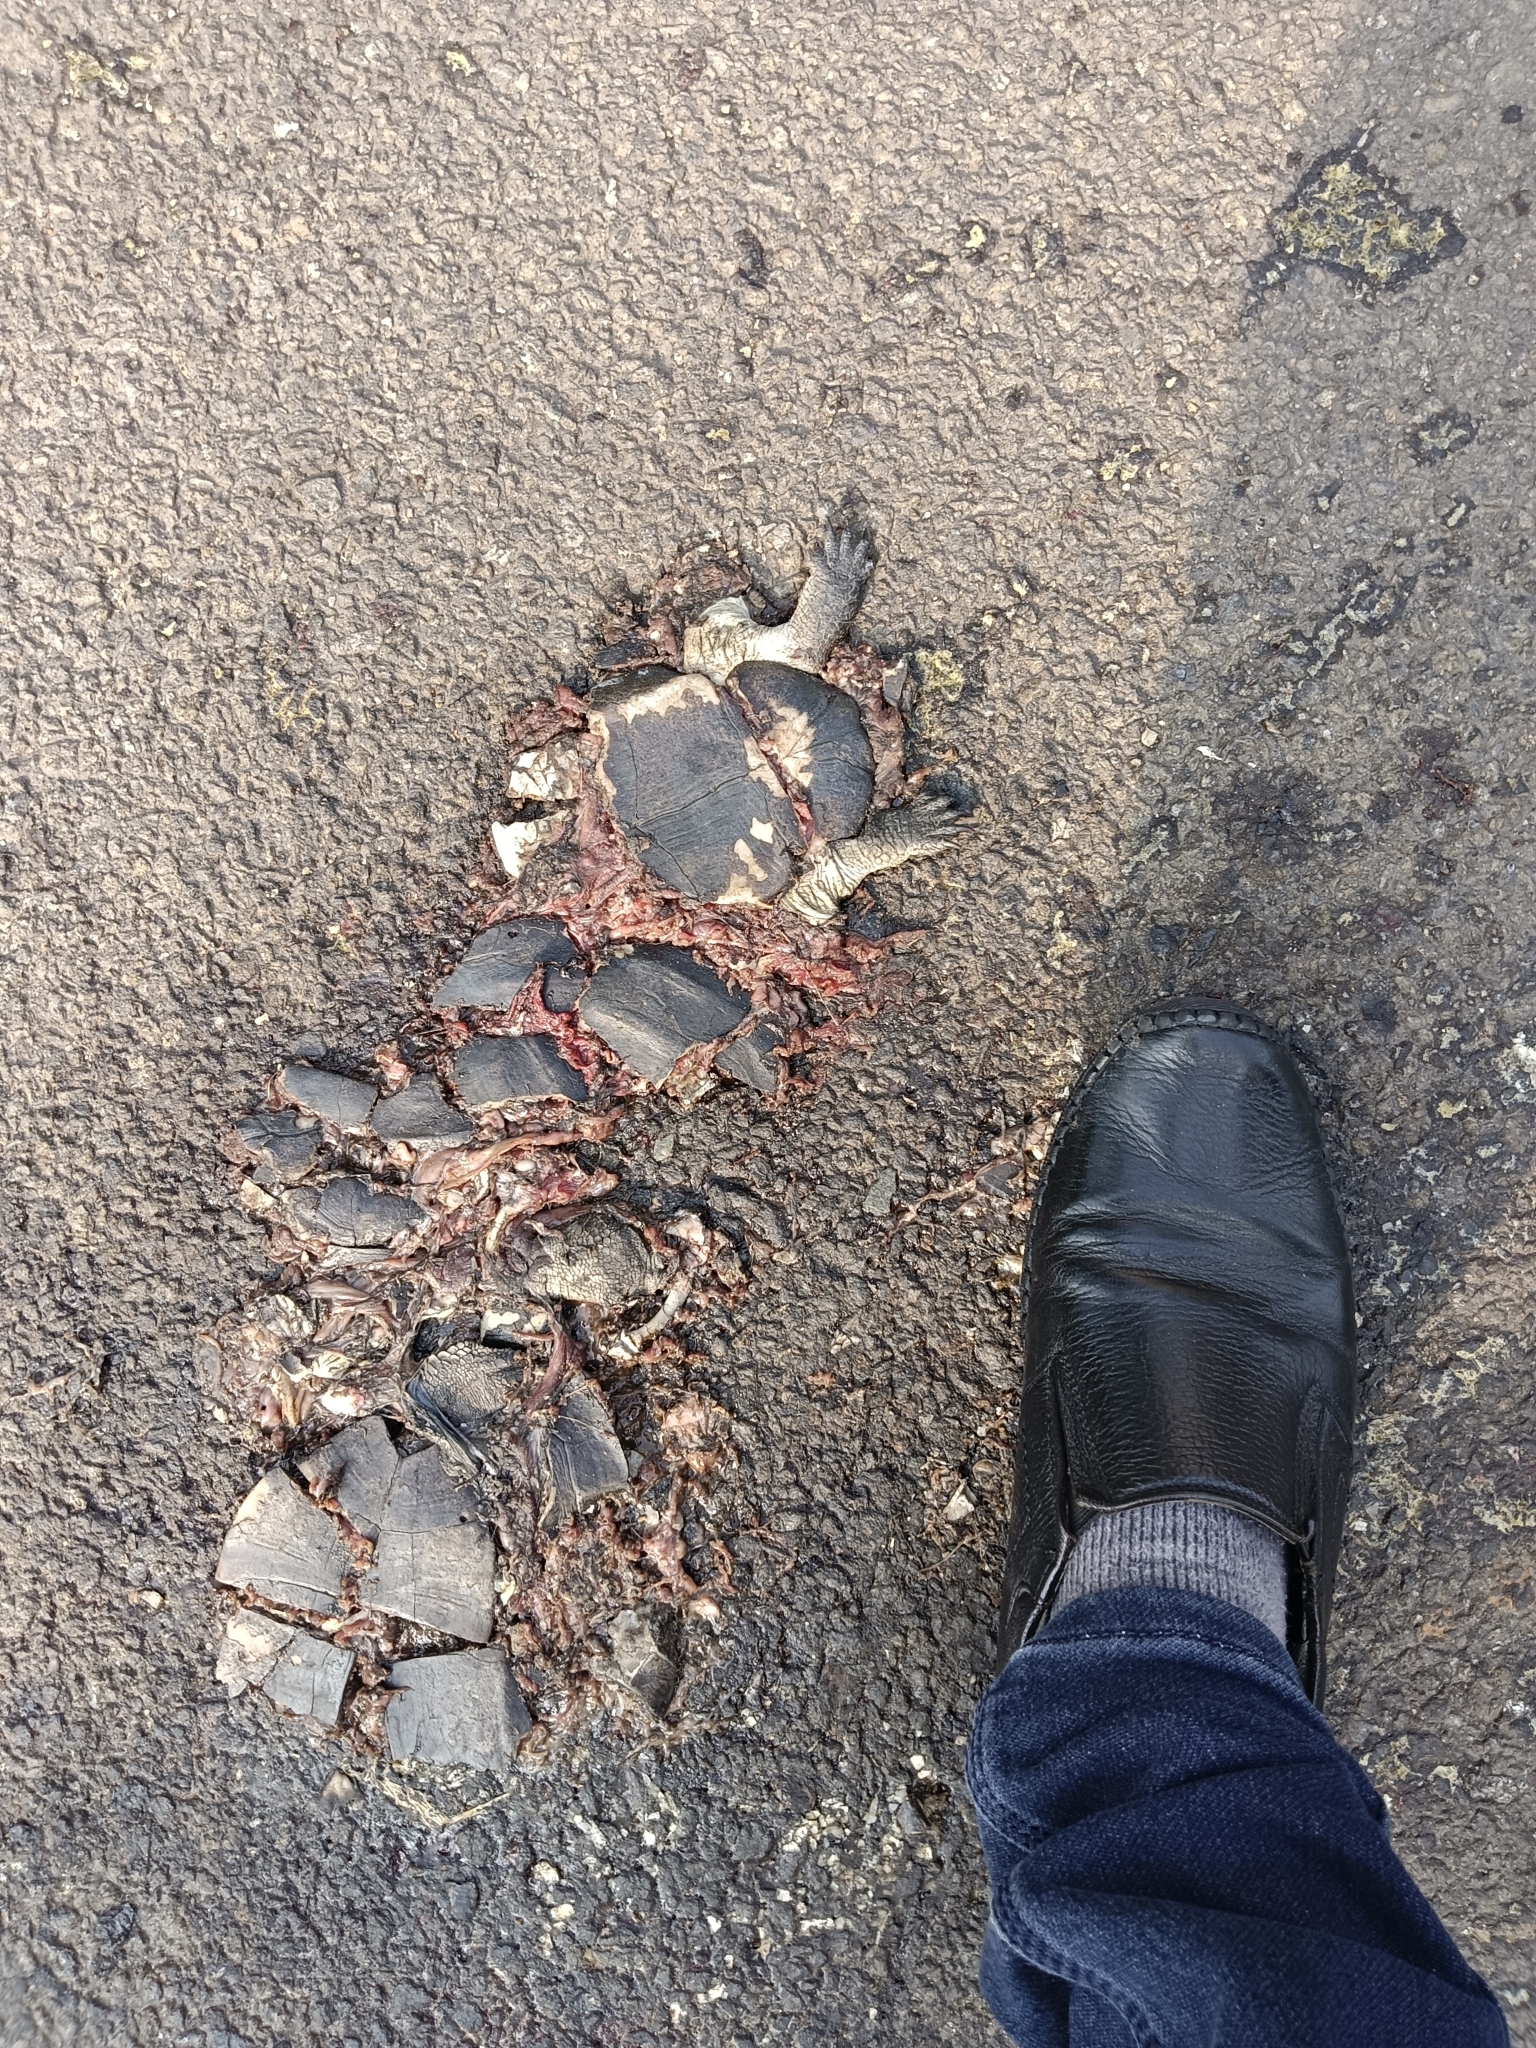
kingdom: Animalia
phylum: Chordata
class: Testudines
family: Geoemydidae
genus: Melanochelys
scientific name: Melanochelys trijuga
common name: Indian black turtle
